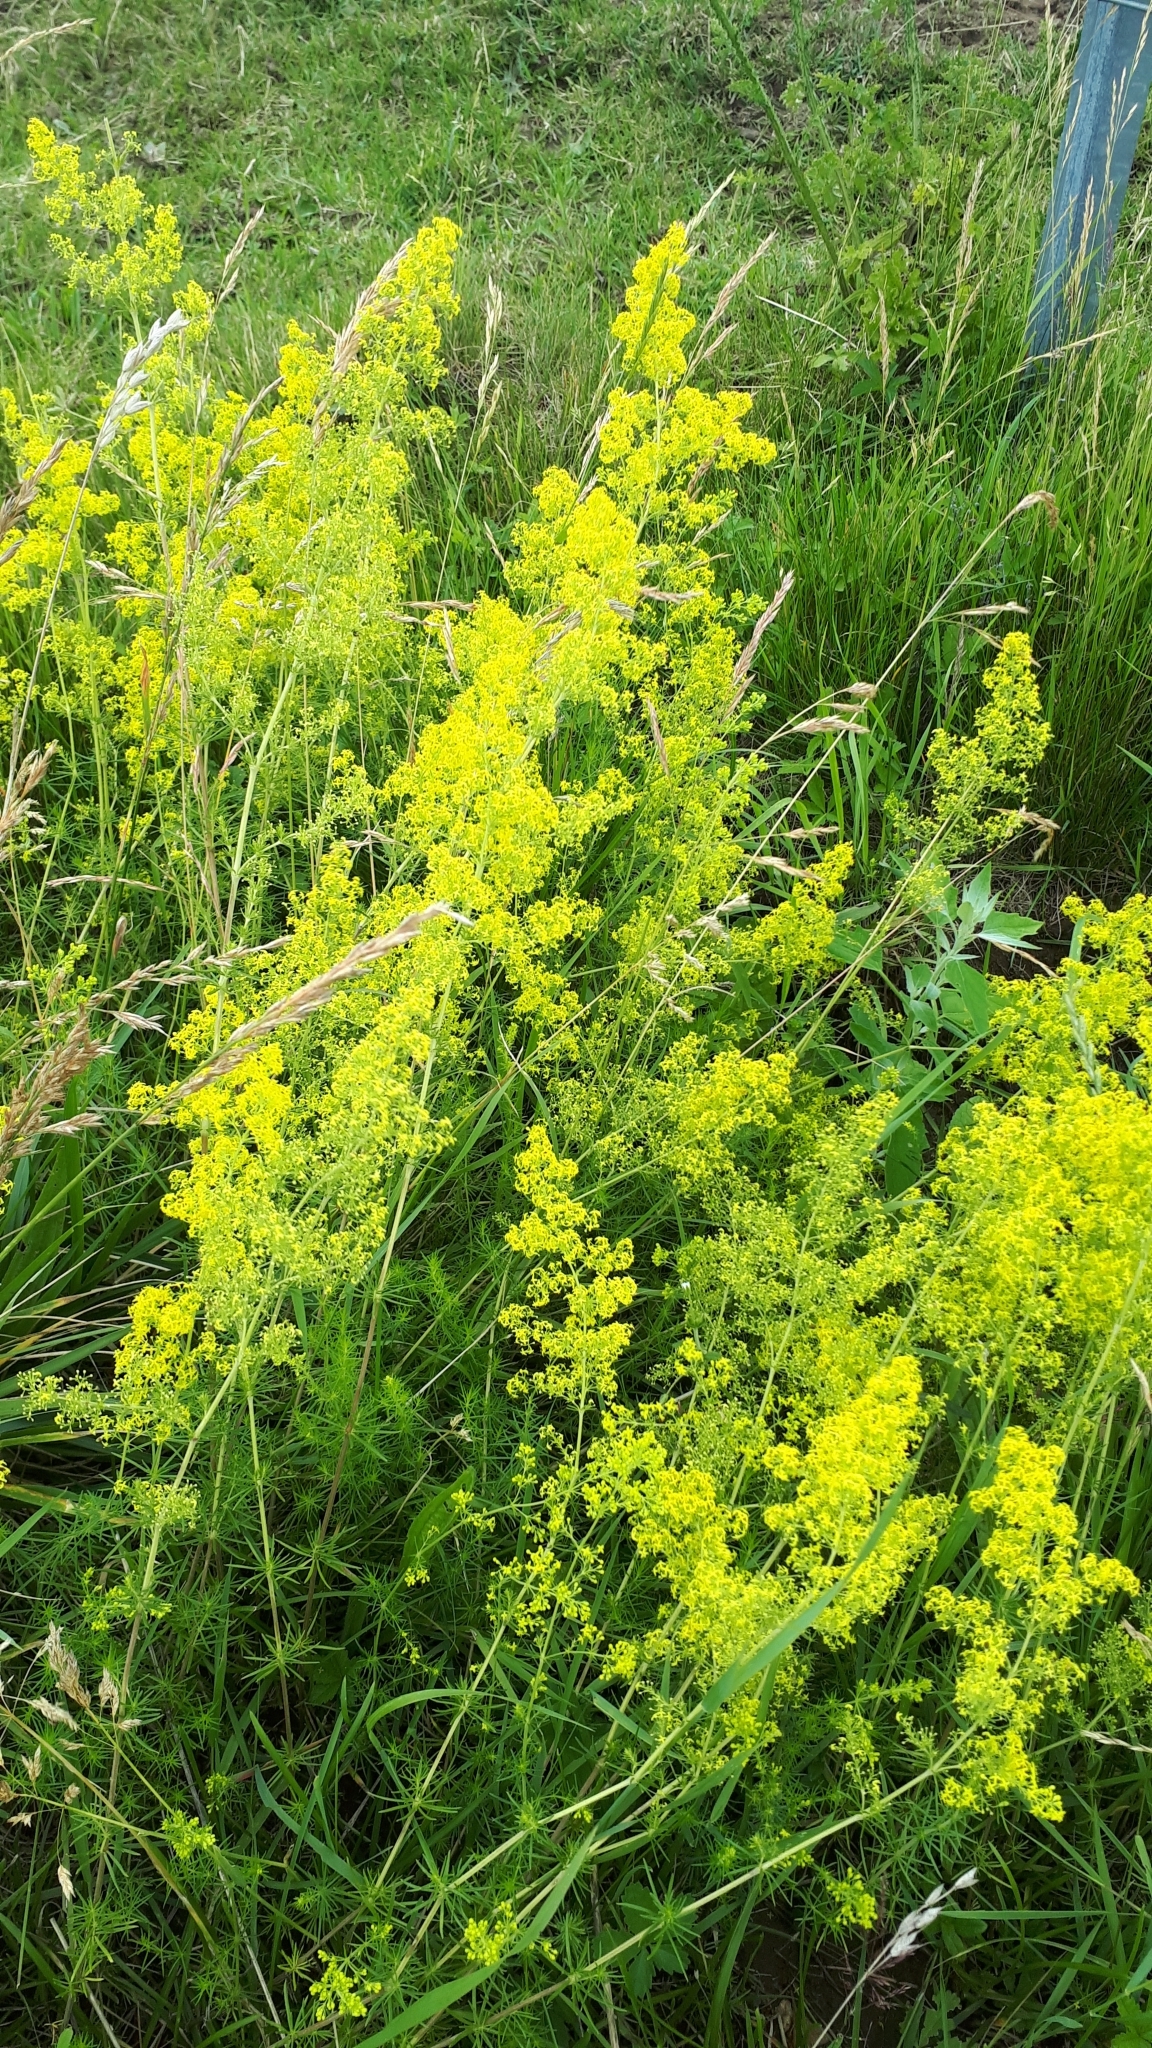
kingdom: Plantae
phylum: Tracheophyta
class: Magnoliopsida
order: Gentianales
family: Rubiaceae
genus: Galium
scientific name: Galium verum
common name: Lady's bedstraw
